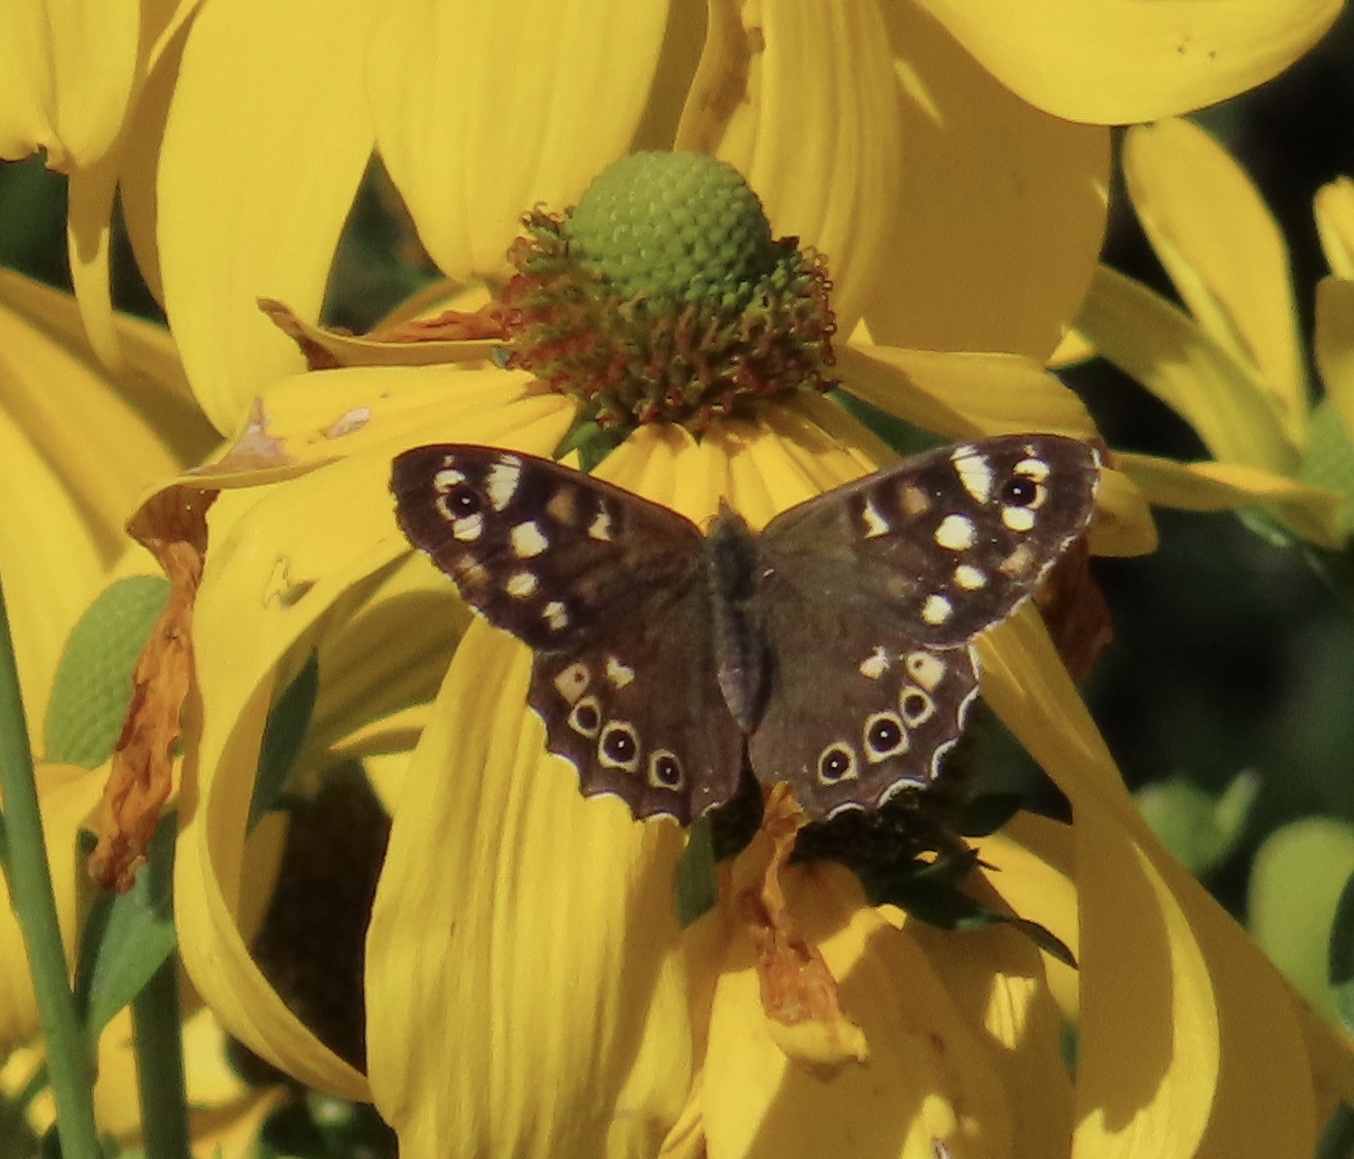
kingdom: Animalia
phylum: Arthropoda
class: Insecta
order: Lepidoptera
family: Nymphalidae
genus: Pararge
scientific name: Pararge aegeria
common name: Speckled wood
